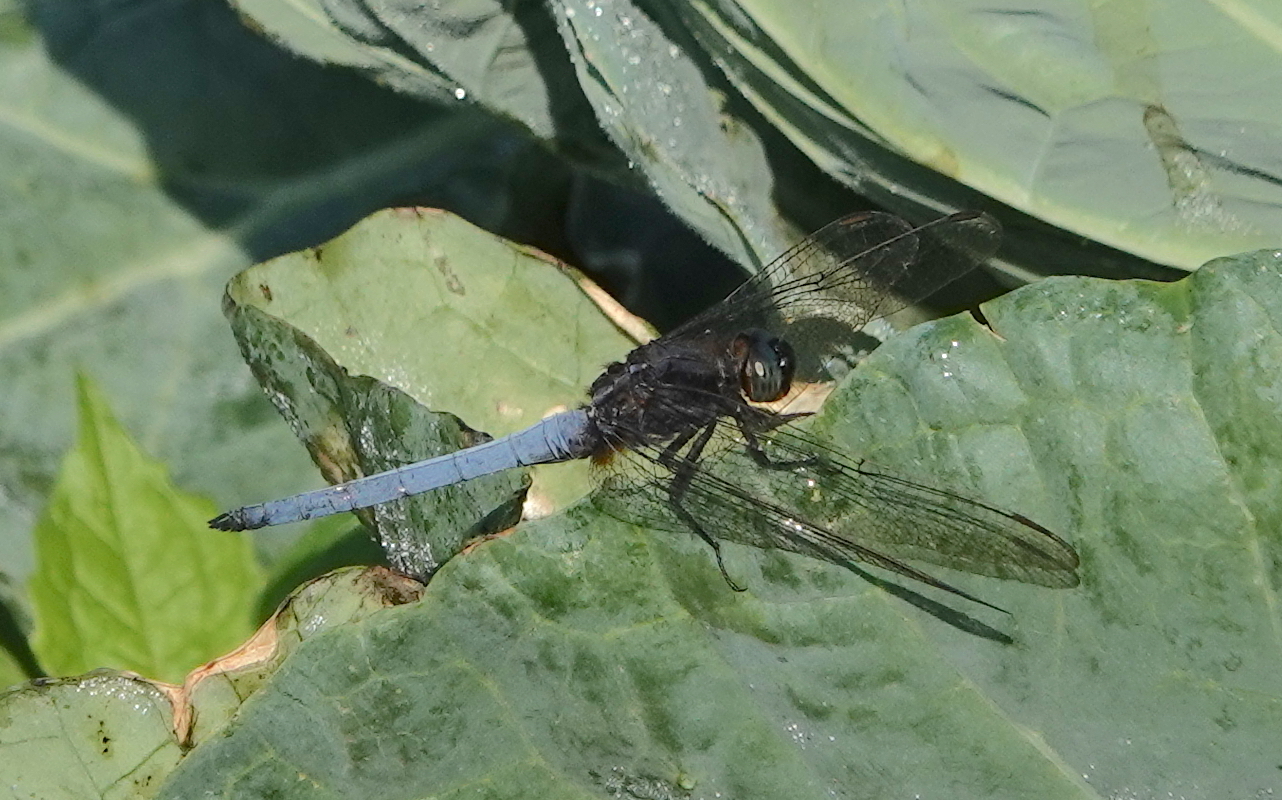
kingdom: Animalia
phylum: Arthropoda
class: Insecta
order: Odonata
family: Libellulidae
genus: Orthetrum
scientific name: Orthetrum glaucum
